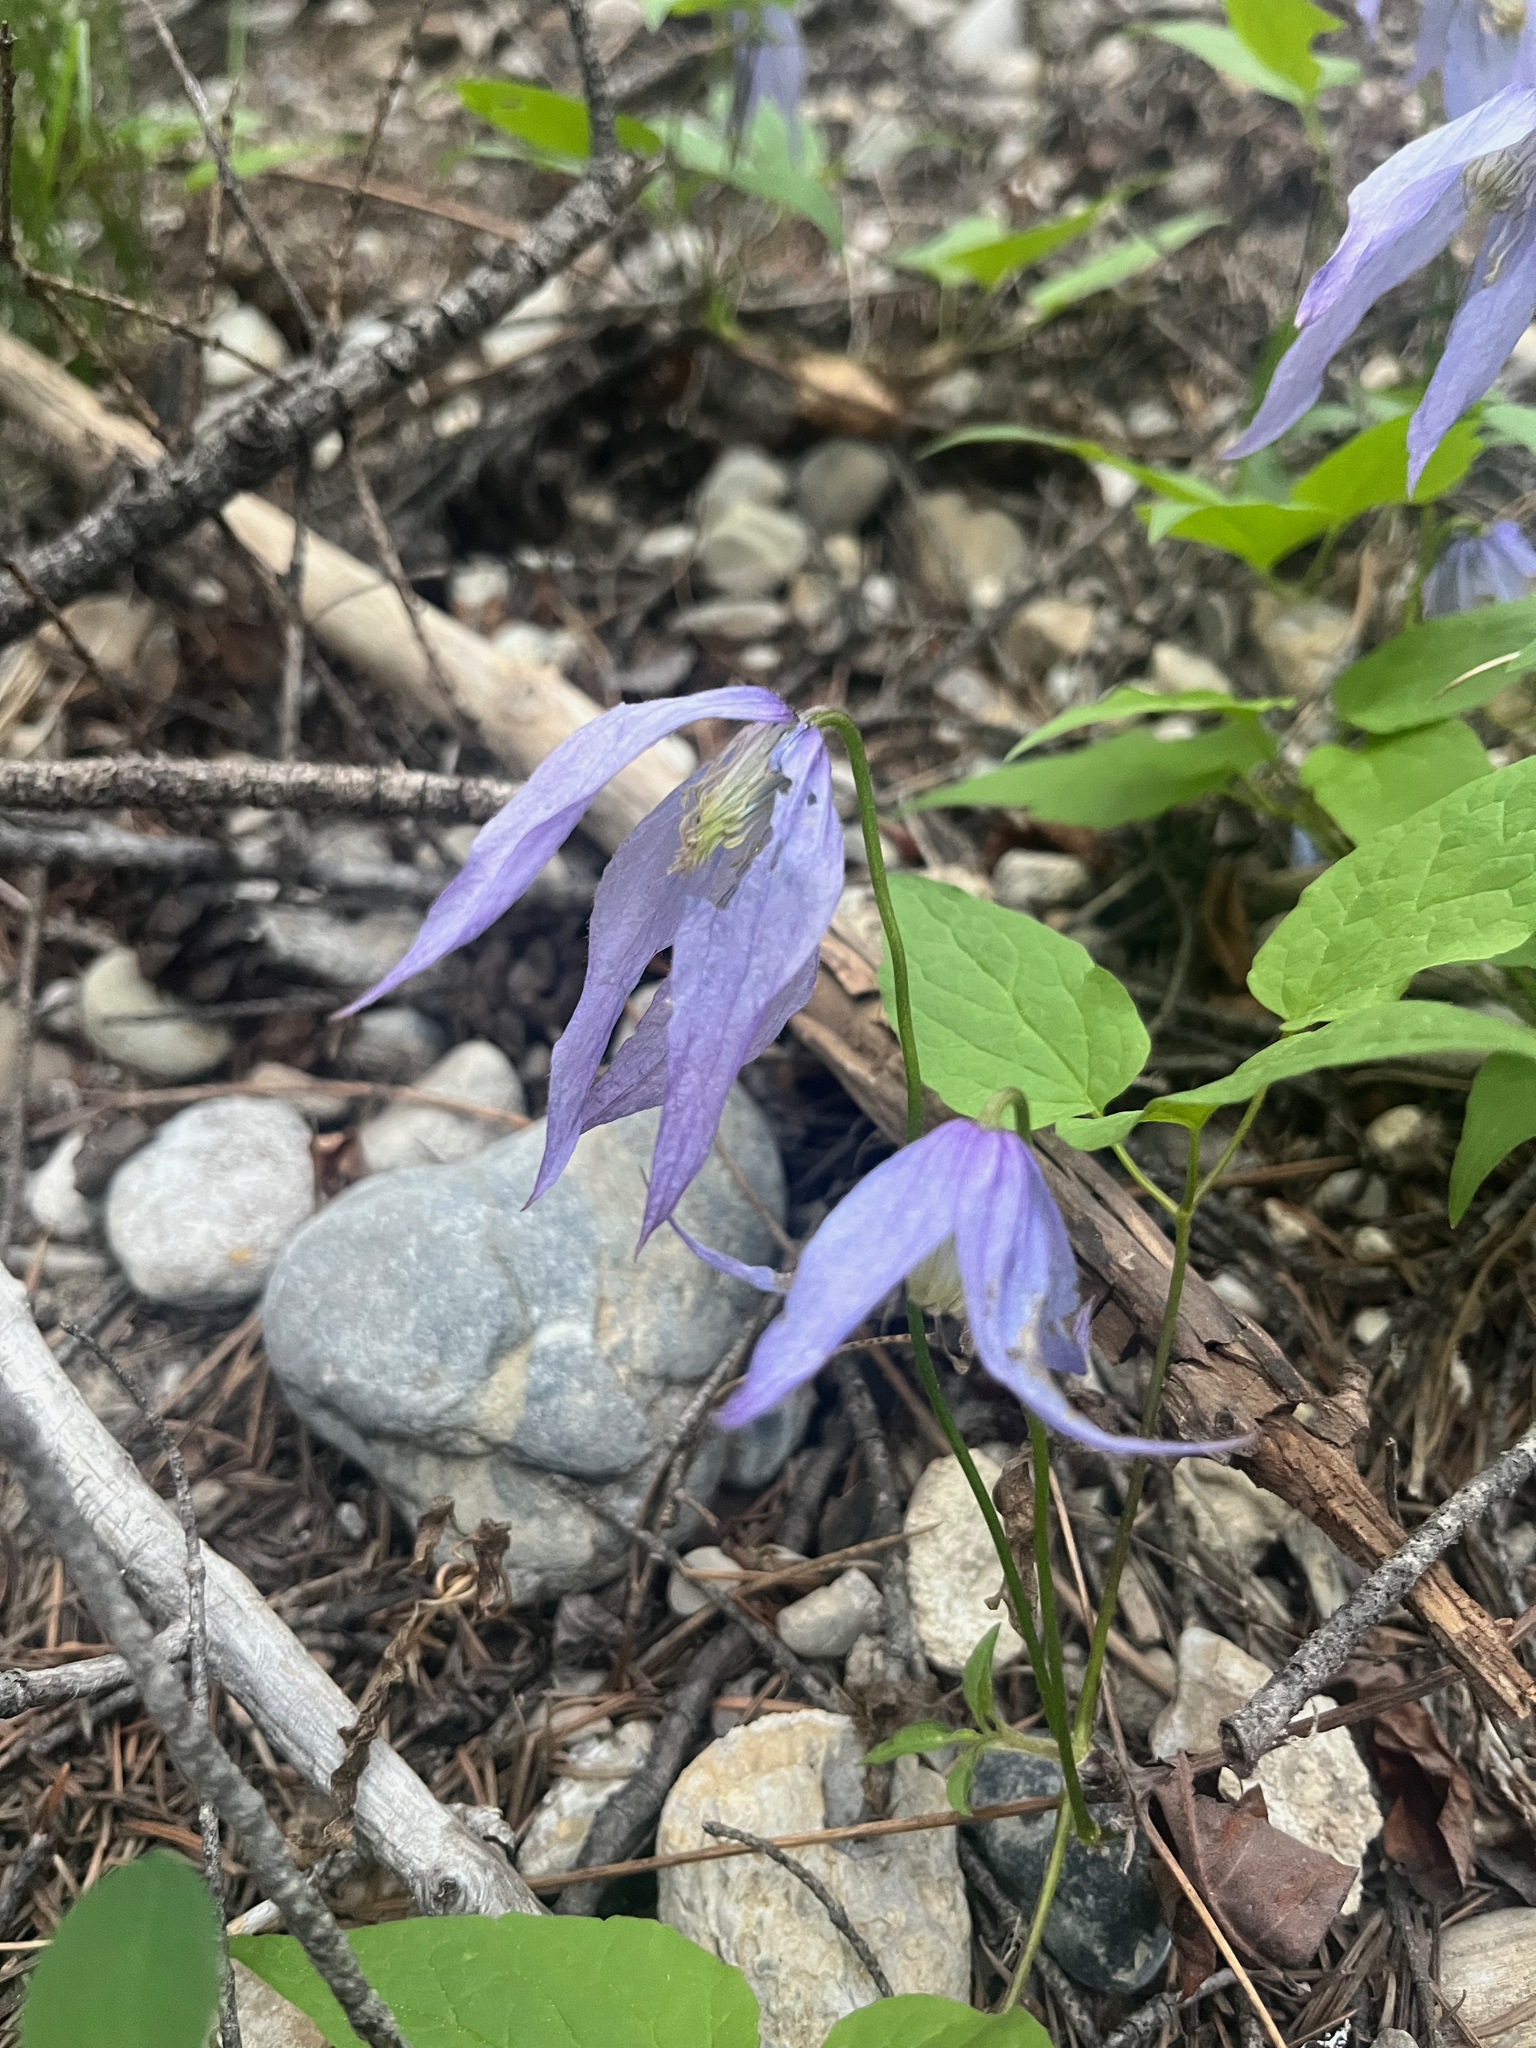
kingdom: Plantae
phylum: Tracheophyta
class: Magnoliopsida
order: Ranunculales
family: Ranunculaceae
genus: Clematis
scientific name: Clematis occidentalis
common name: Purple clematis
